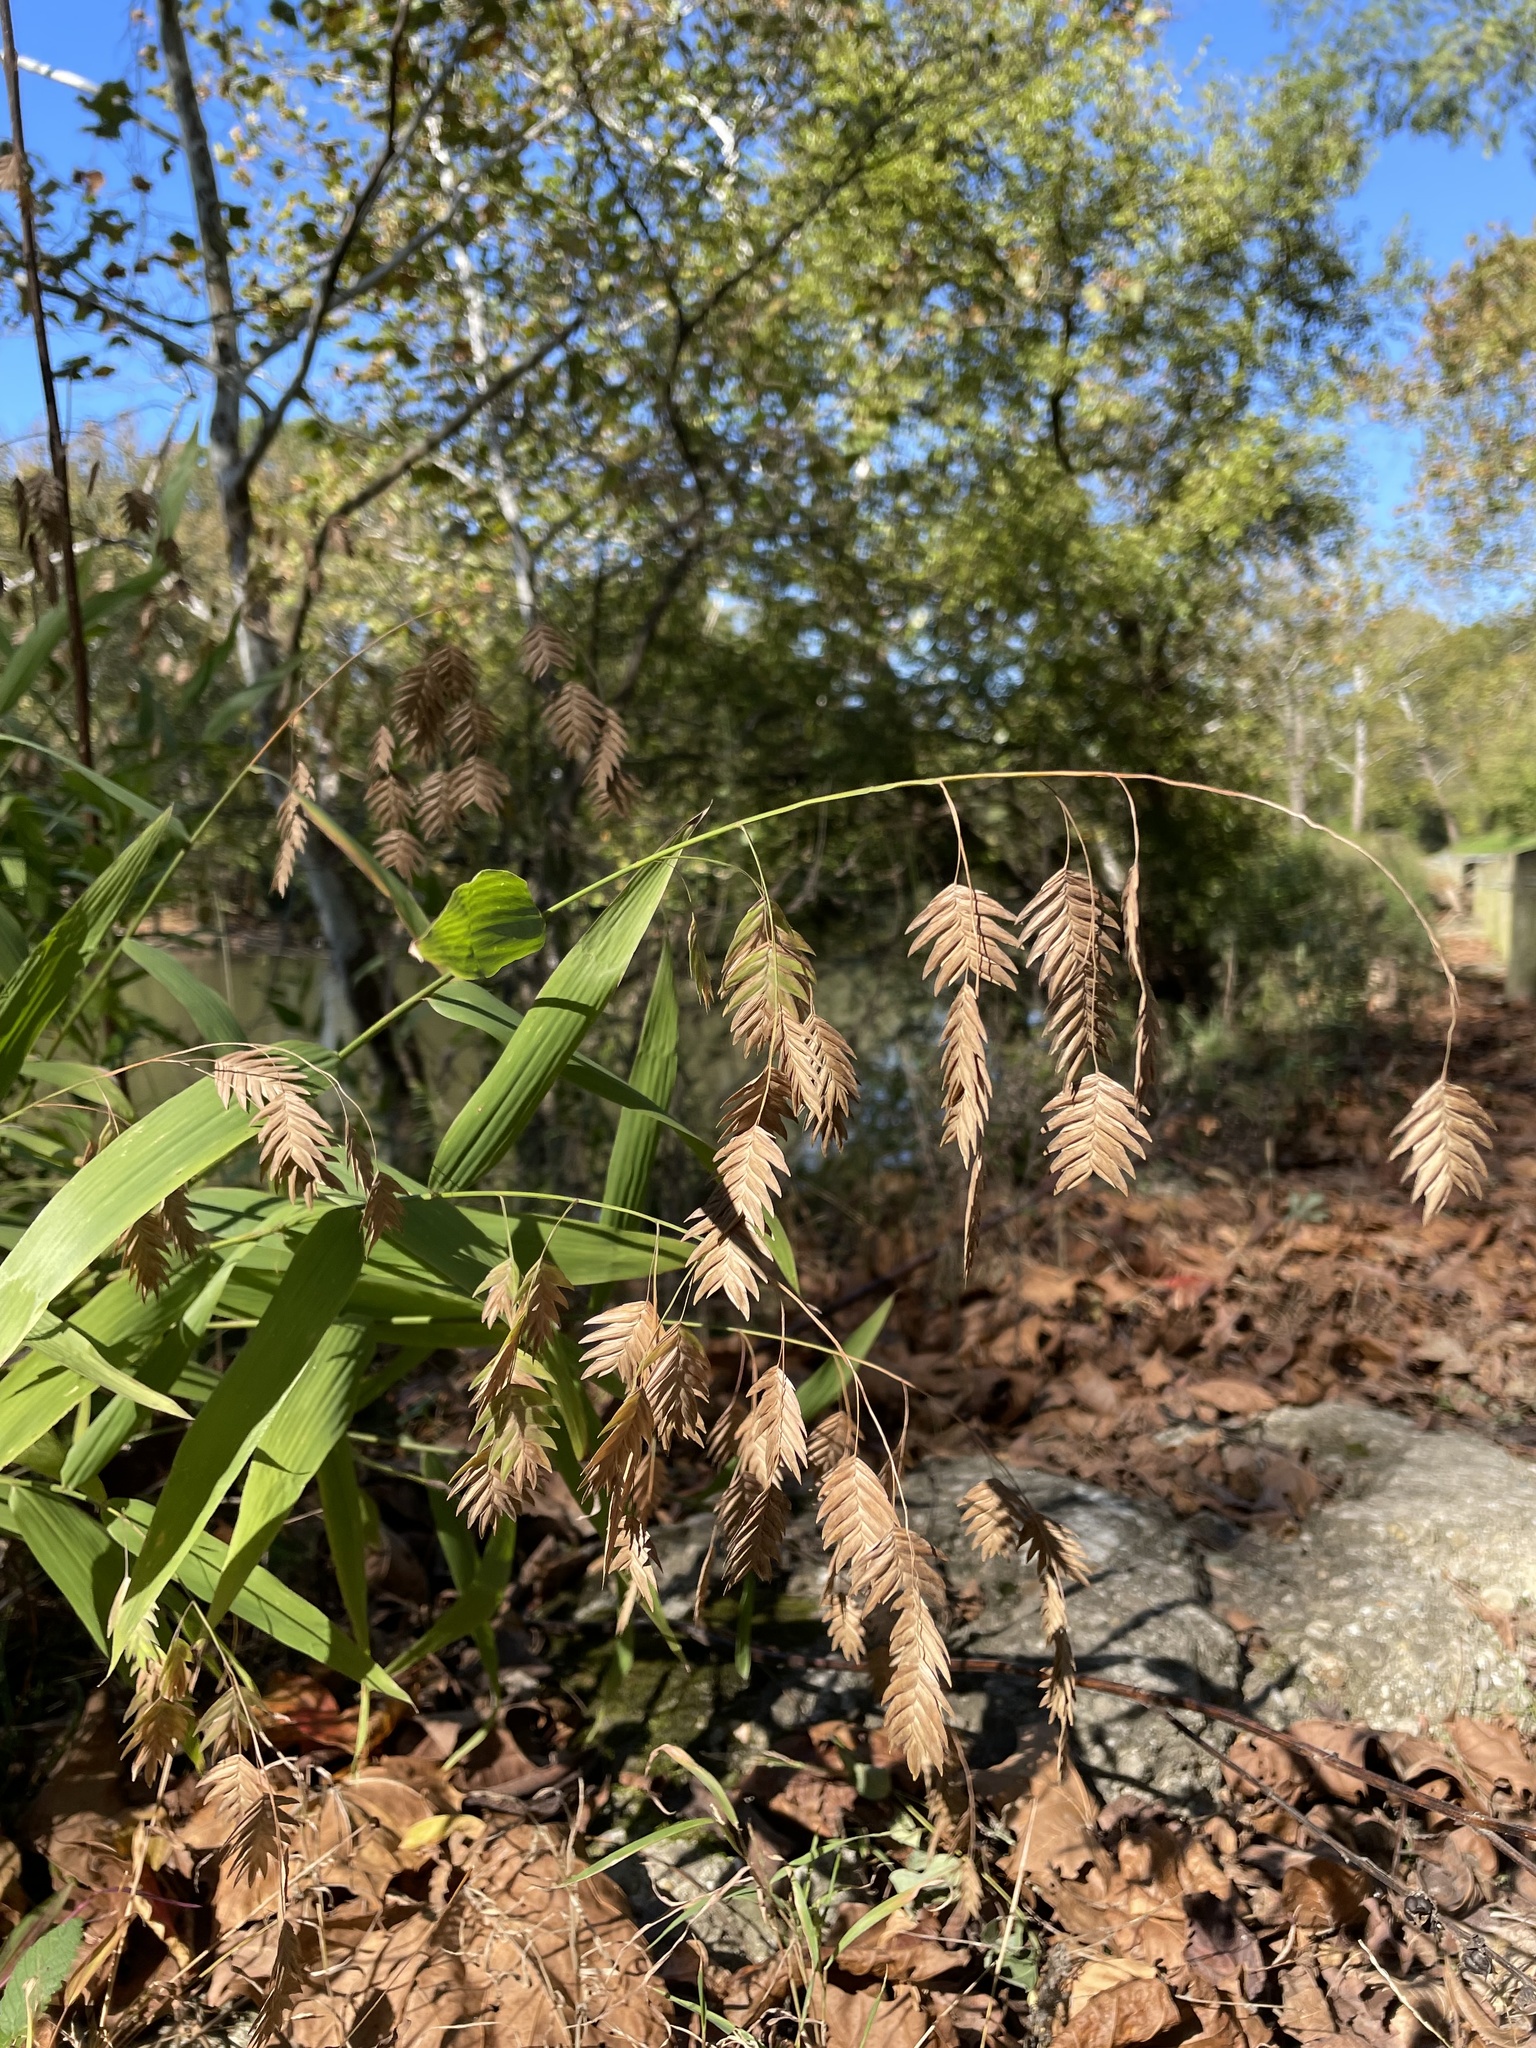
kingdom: Plantae
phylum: Tracheophyta
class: Liliopsida
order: Poales
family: Poaceae
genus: Chasmanthium
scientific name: Chasmanthium latifolium
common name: Broad-leaved chasmanthium
